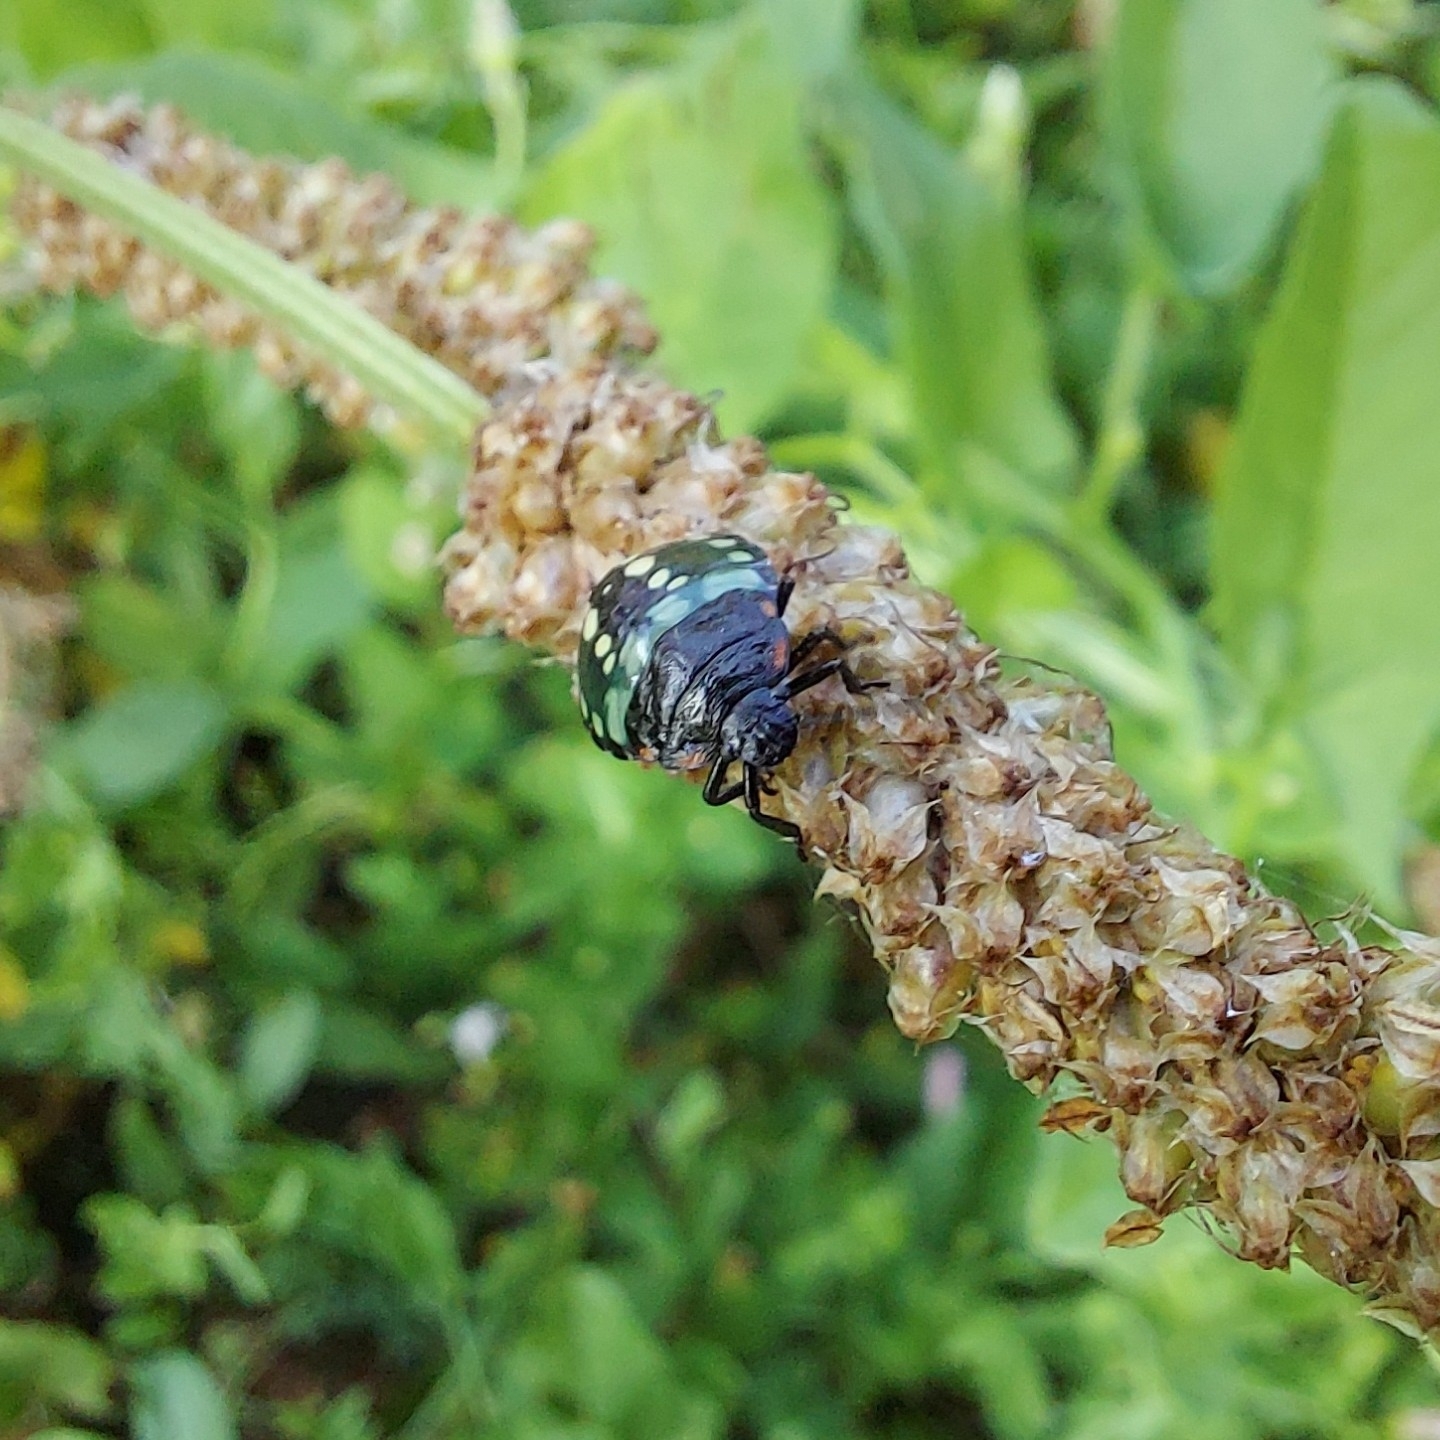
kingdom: Animalia
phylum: Arthropoda
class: Insecta
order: Hemiptera
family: Pentatomidae
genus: Nezara
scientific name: Nezara viridula
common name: Southern green stink bug
